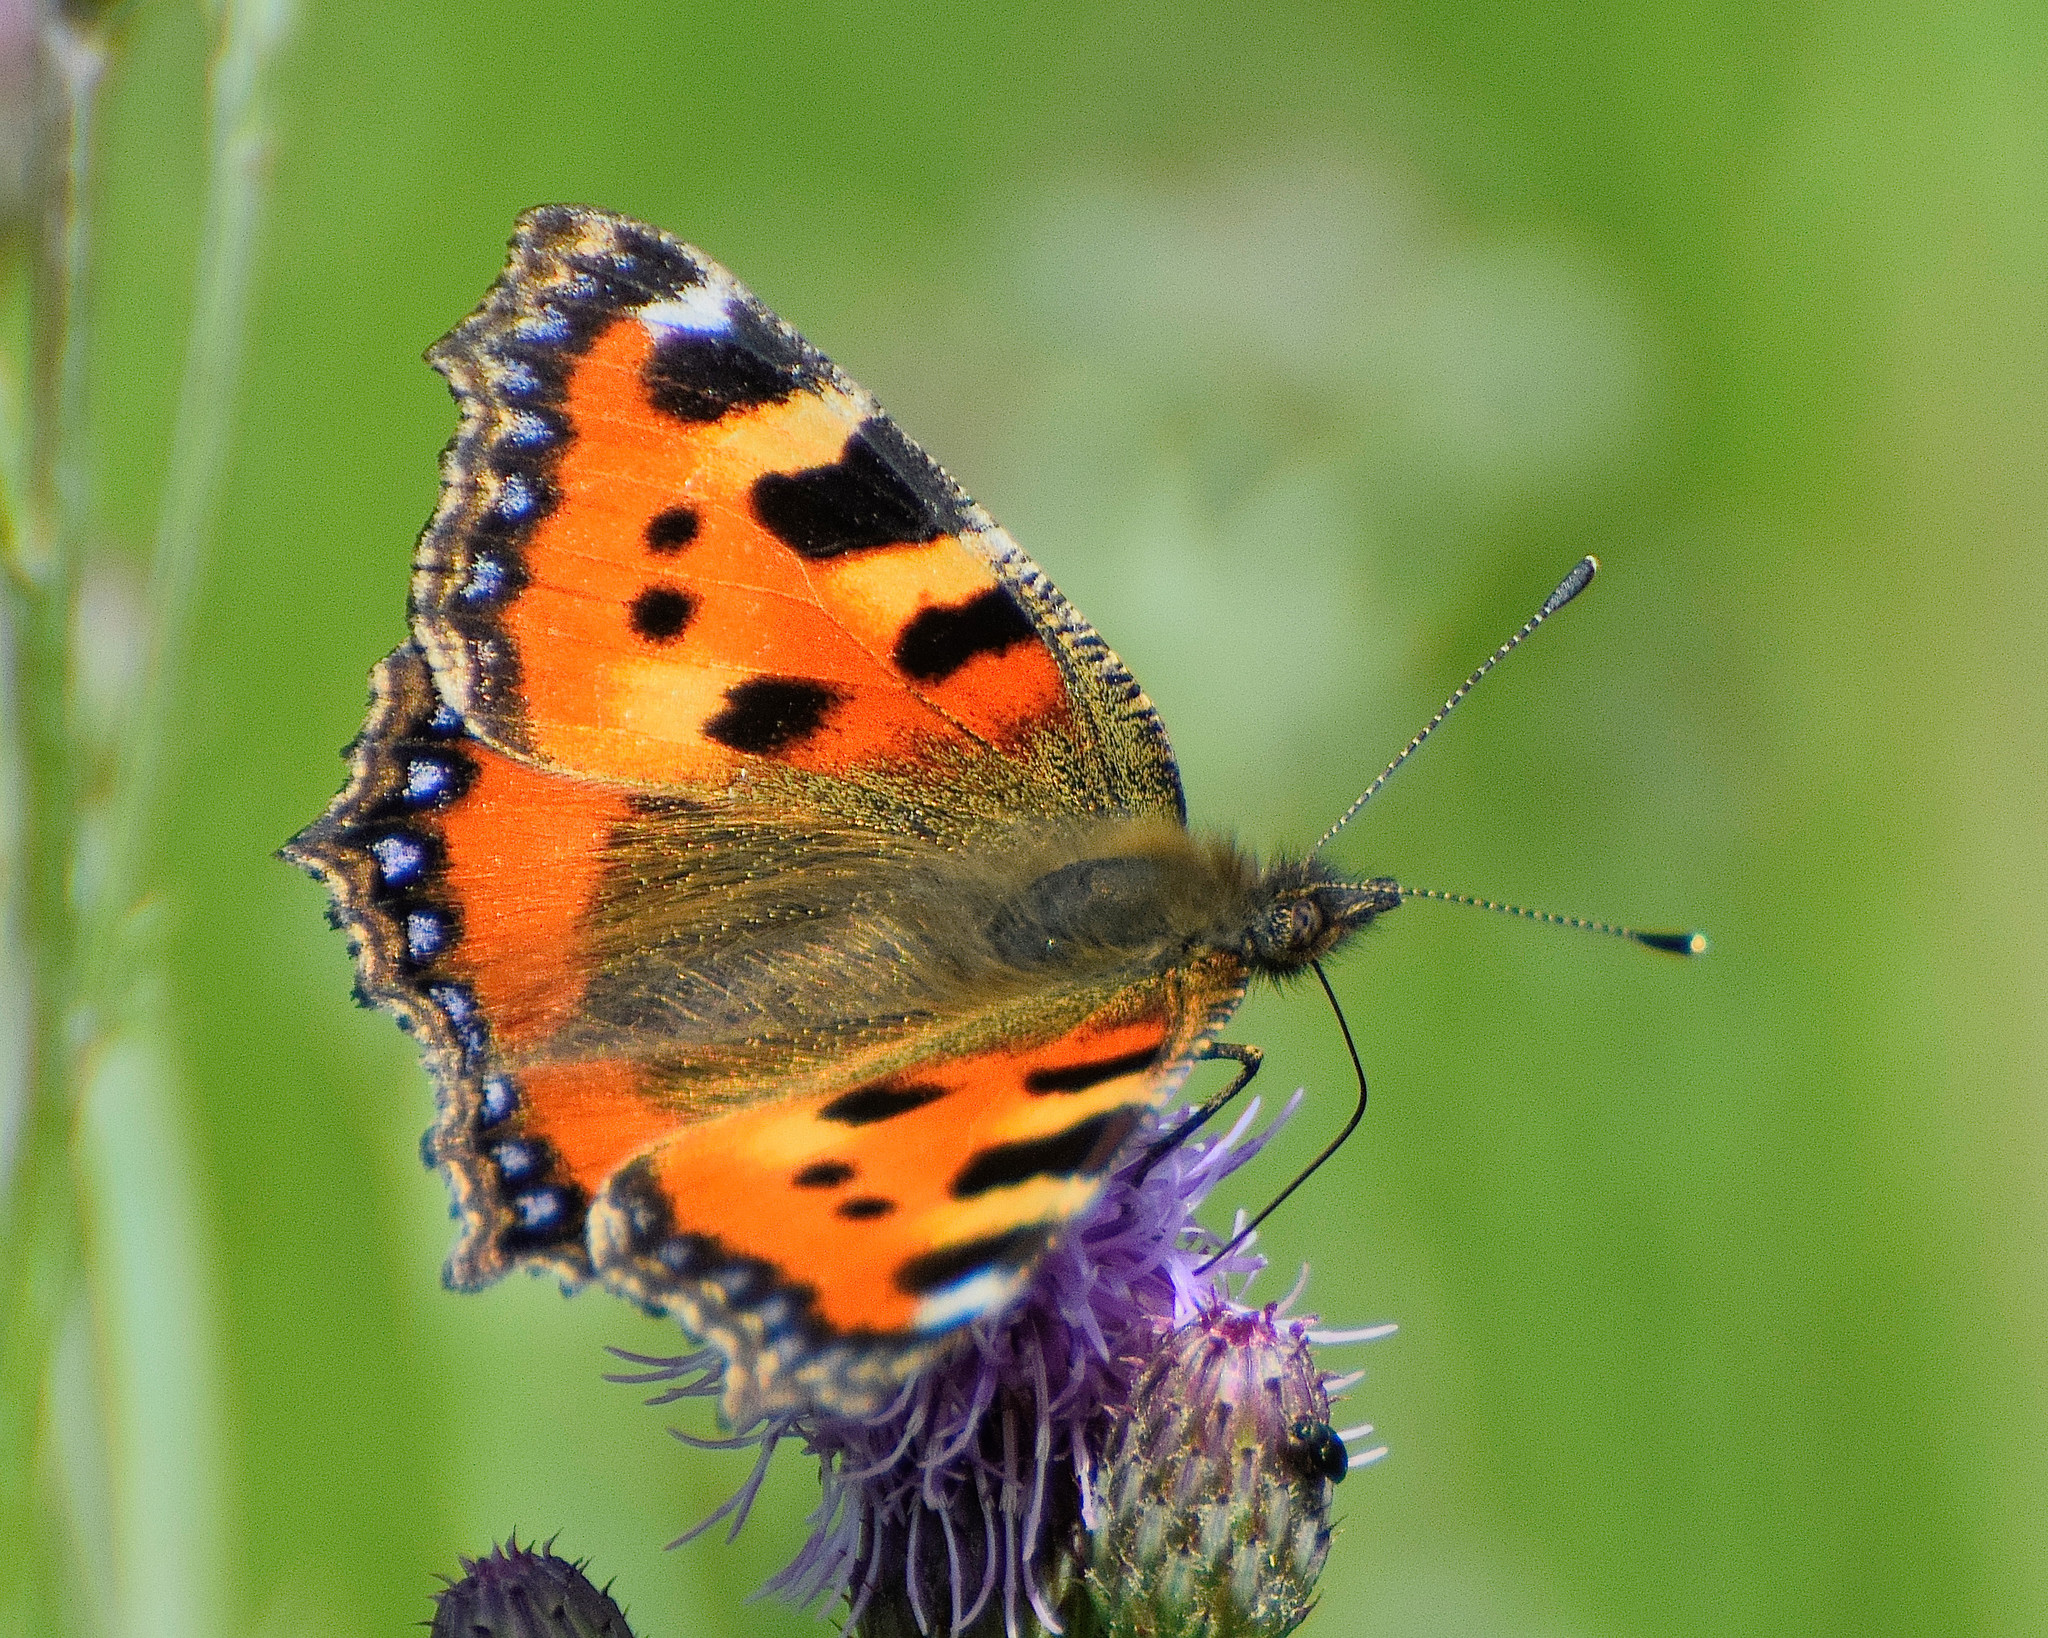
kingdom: Animalia
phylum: Arthropoda
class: Insecta
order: Lepidoptera
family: Nymphalidae
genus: Aglais
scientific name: Aglais urticae
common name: Small tortoiseshell
